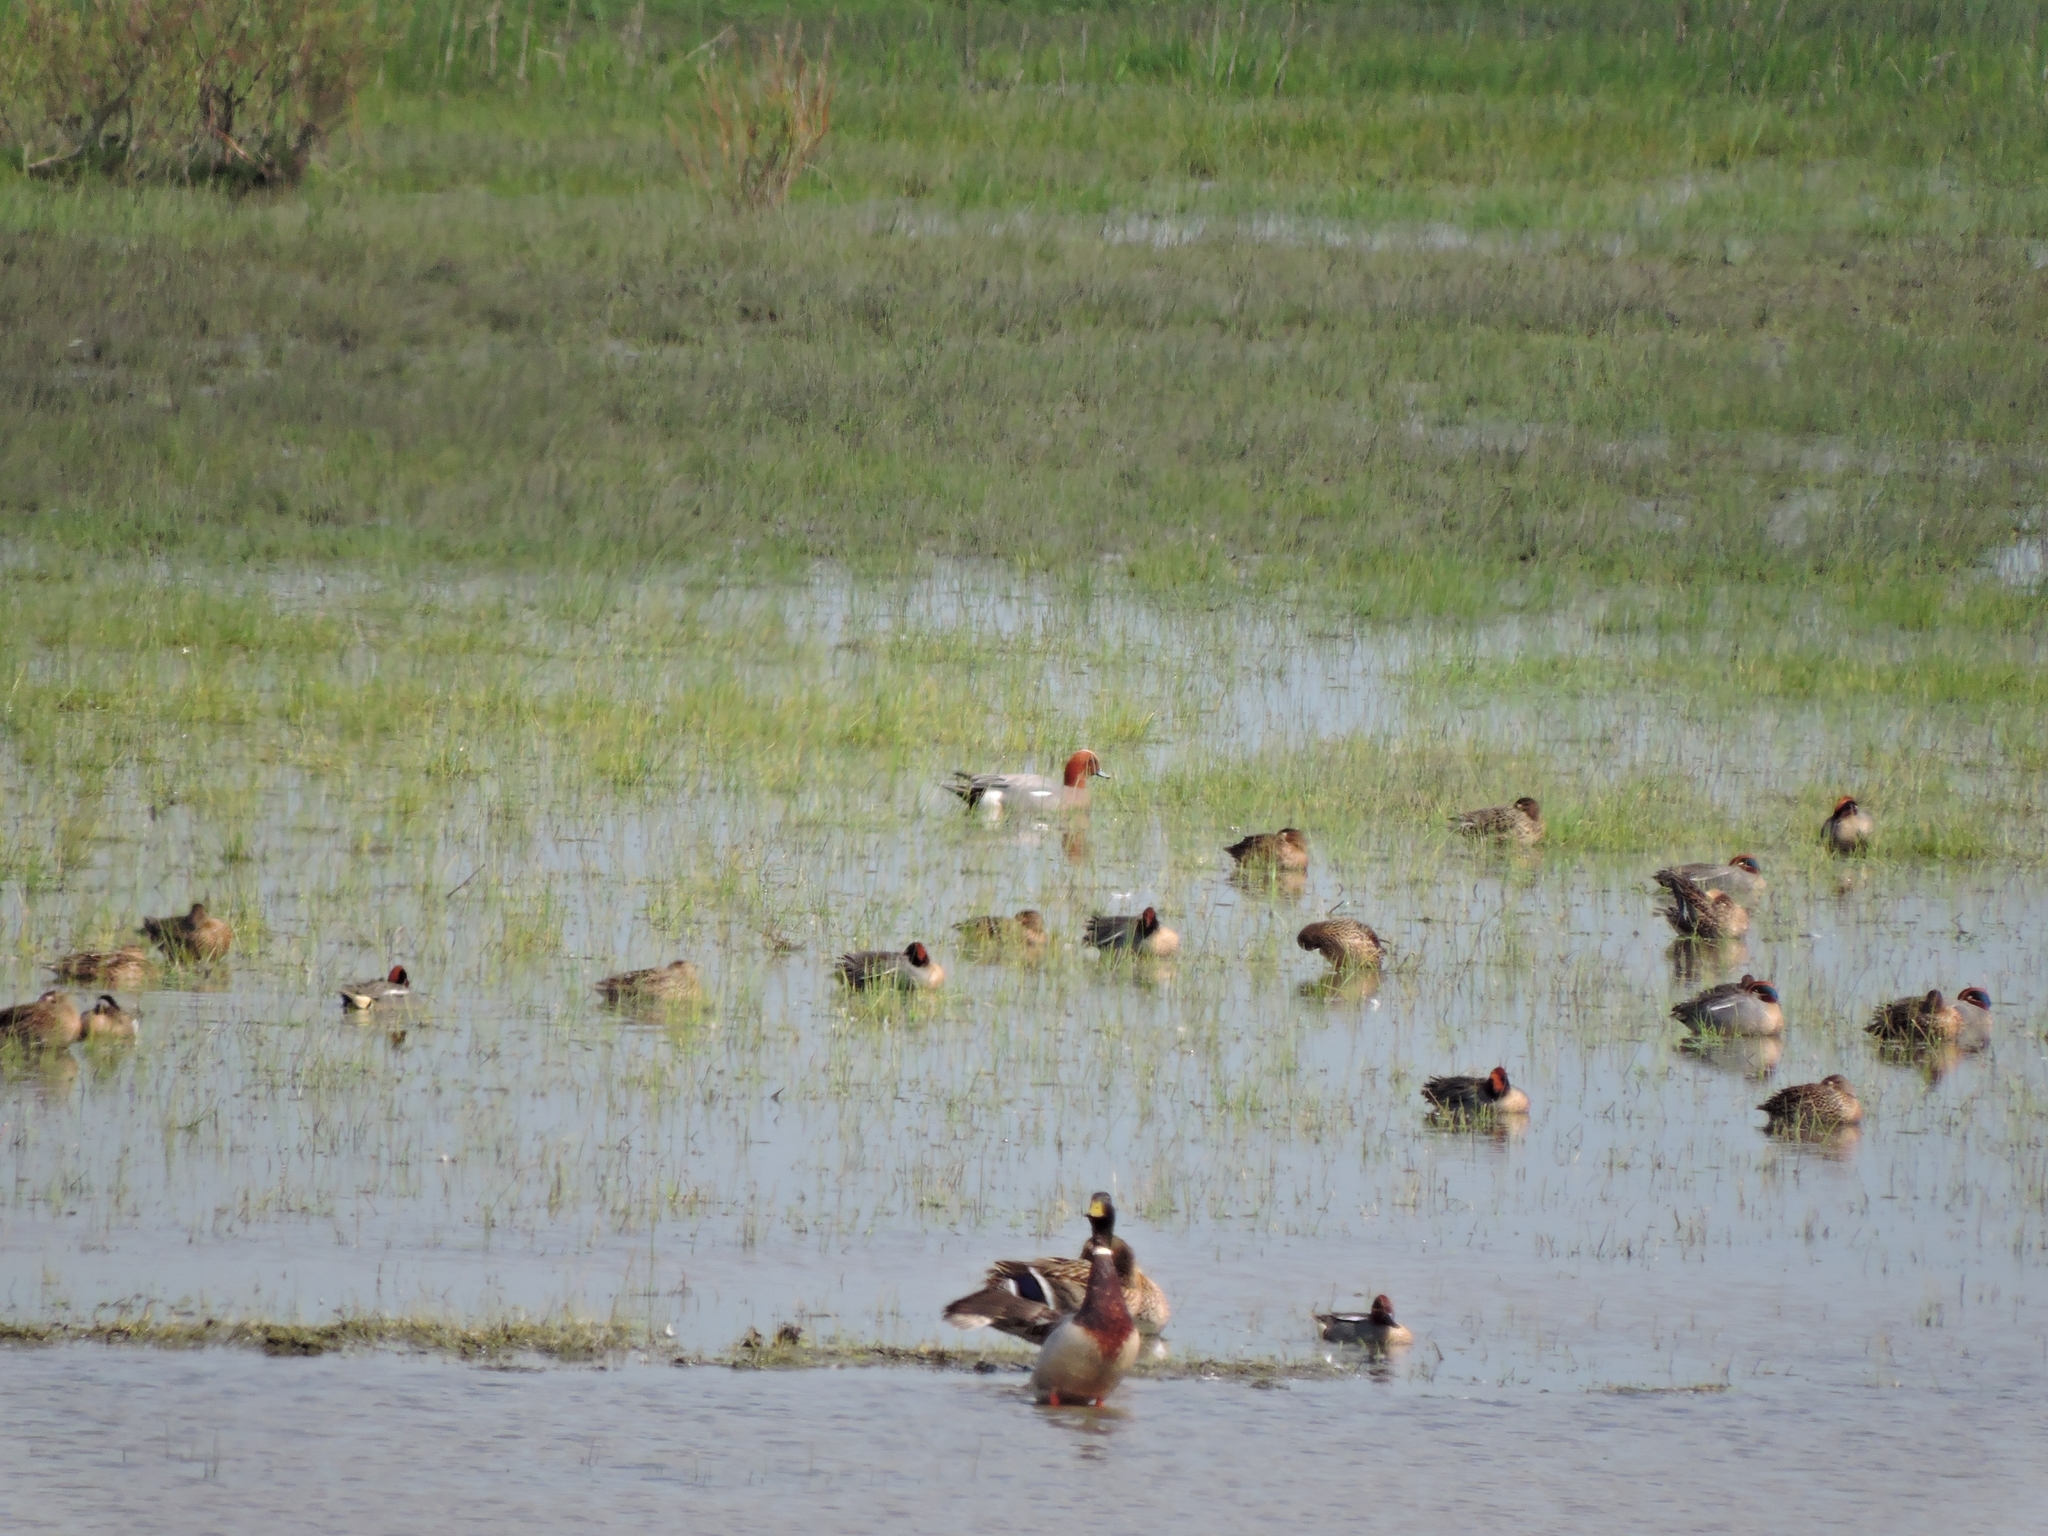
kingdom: Animalia
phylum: Chordata
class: Aves
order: Anseriformes
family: Anatidae
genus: Mareca
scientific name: Mareca penelope
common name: Eurasian wigeon
